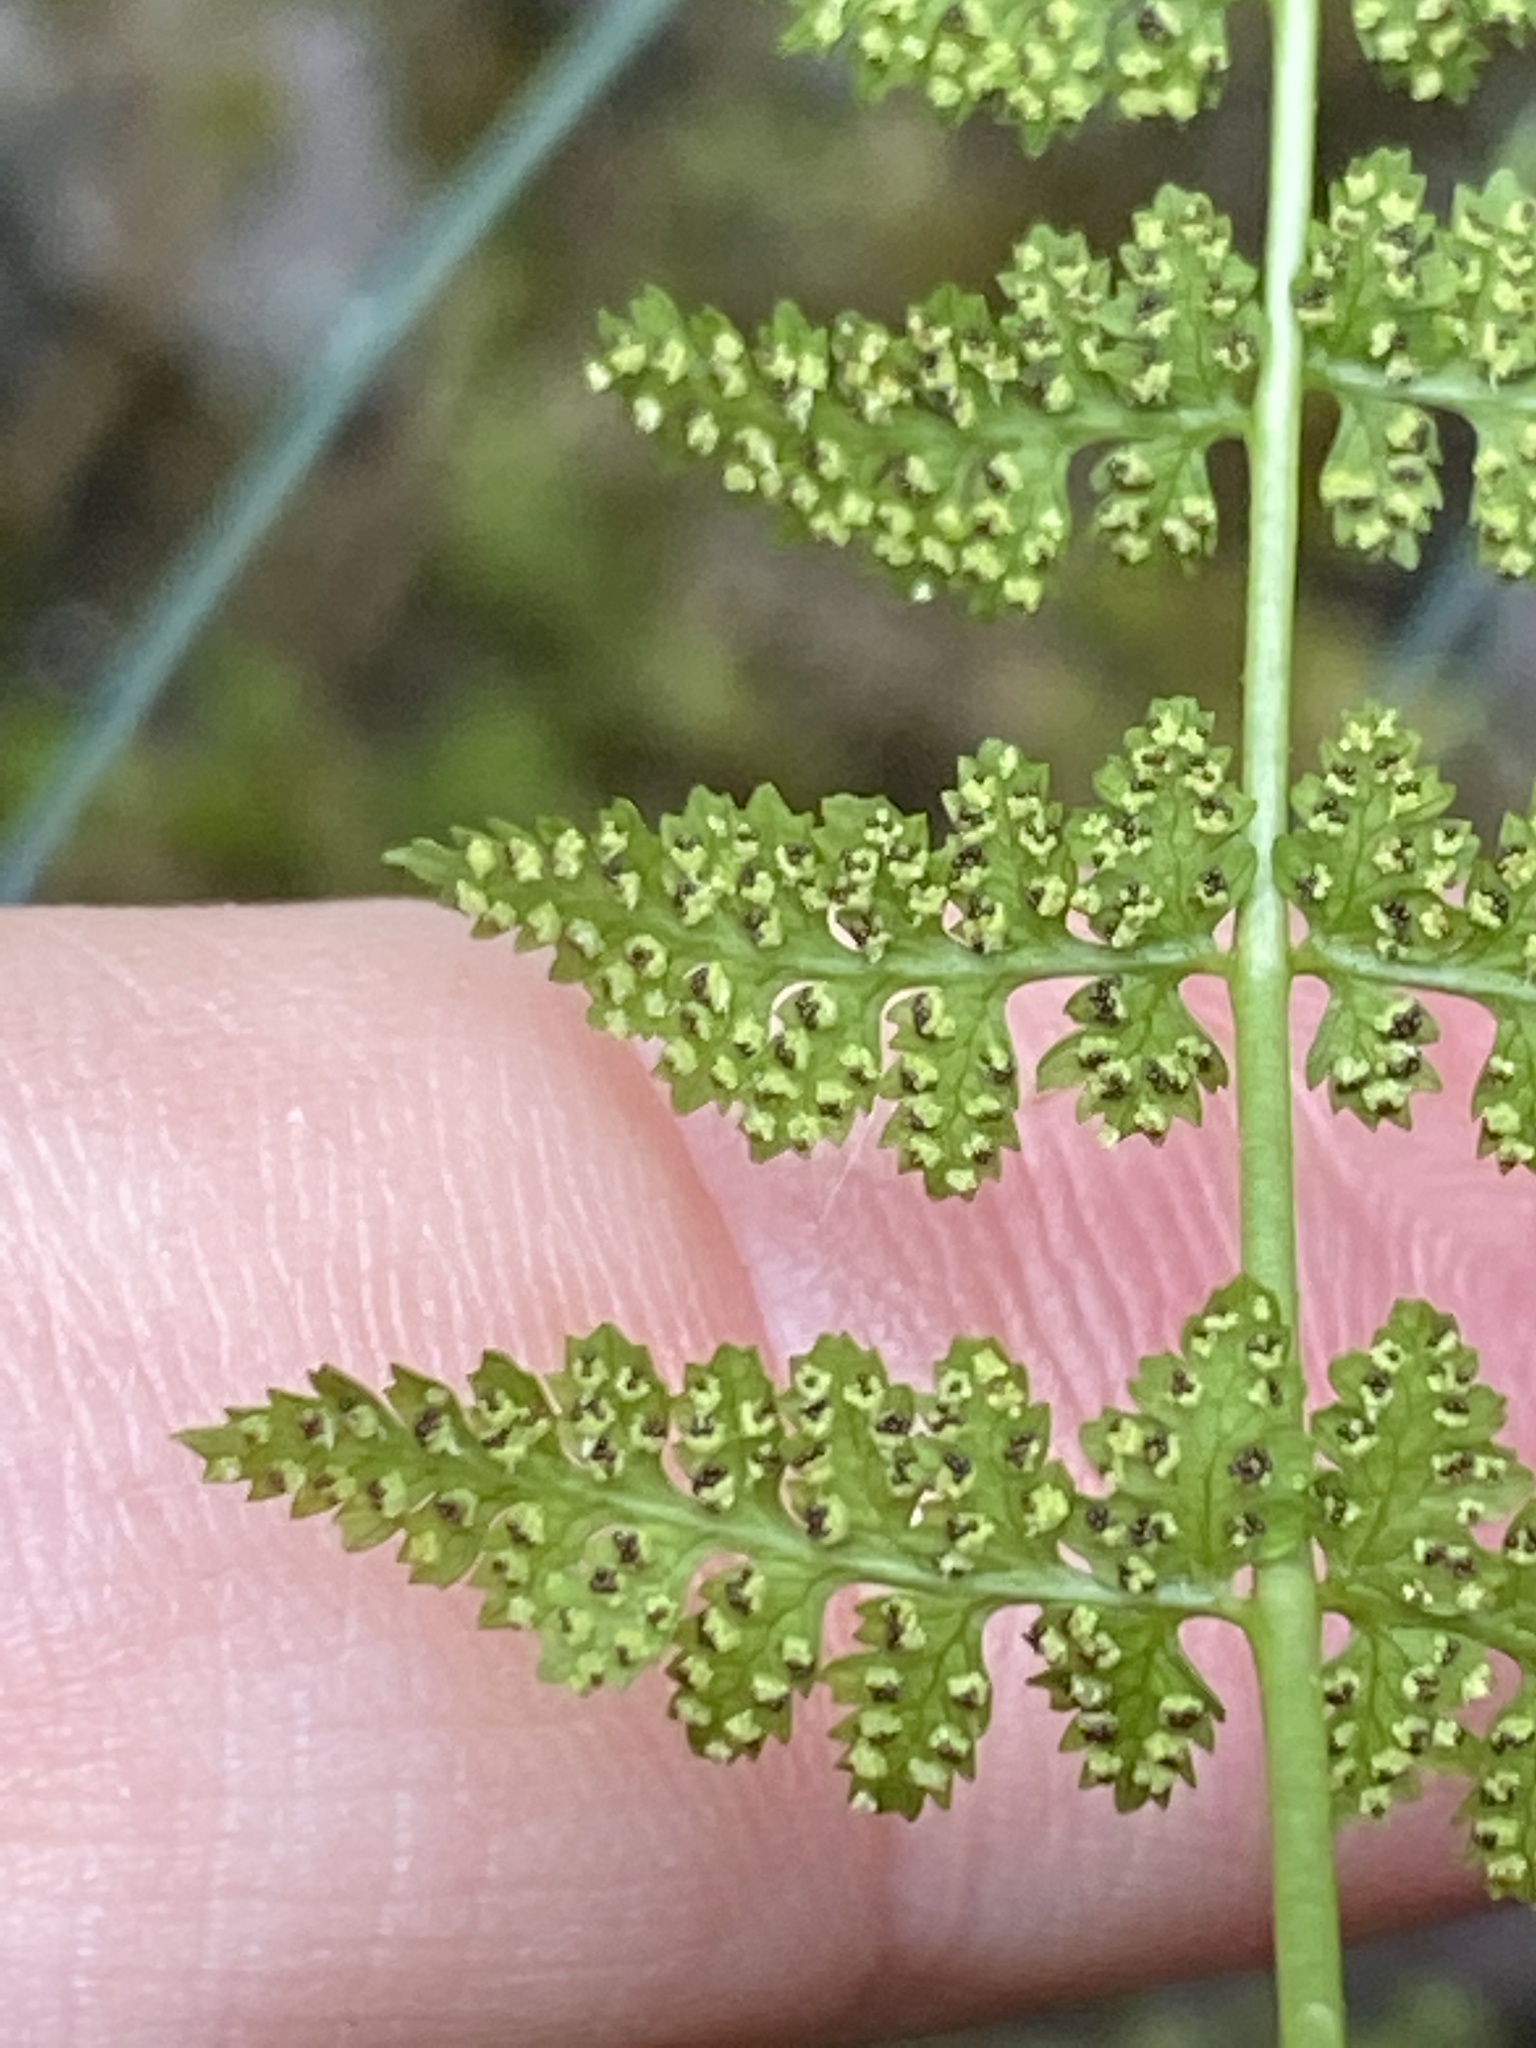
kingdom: Plantae
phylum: Tracheophyta
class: Polypodiopsida
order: Polypodiales
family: Cystopteridaceae
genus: Cystopteris
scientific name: Cystopteris fragilis
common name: Brittle bladder fern
